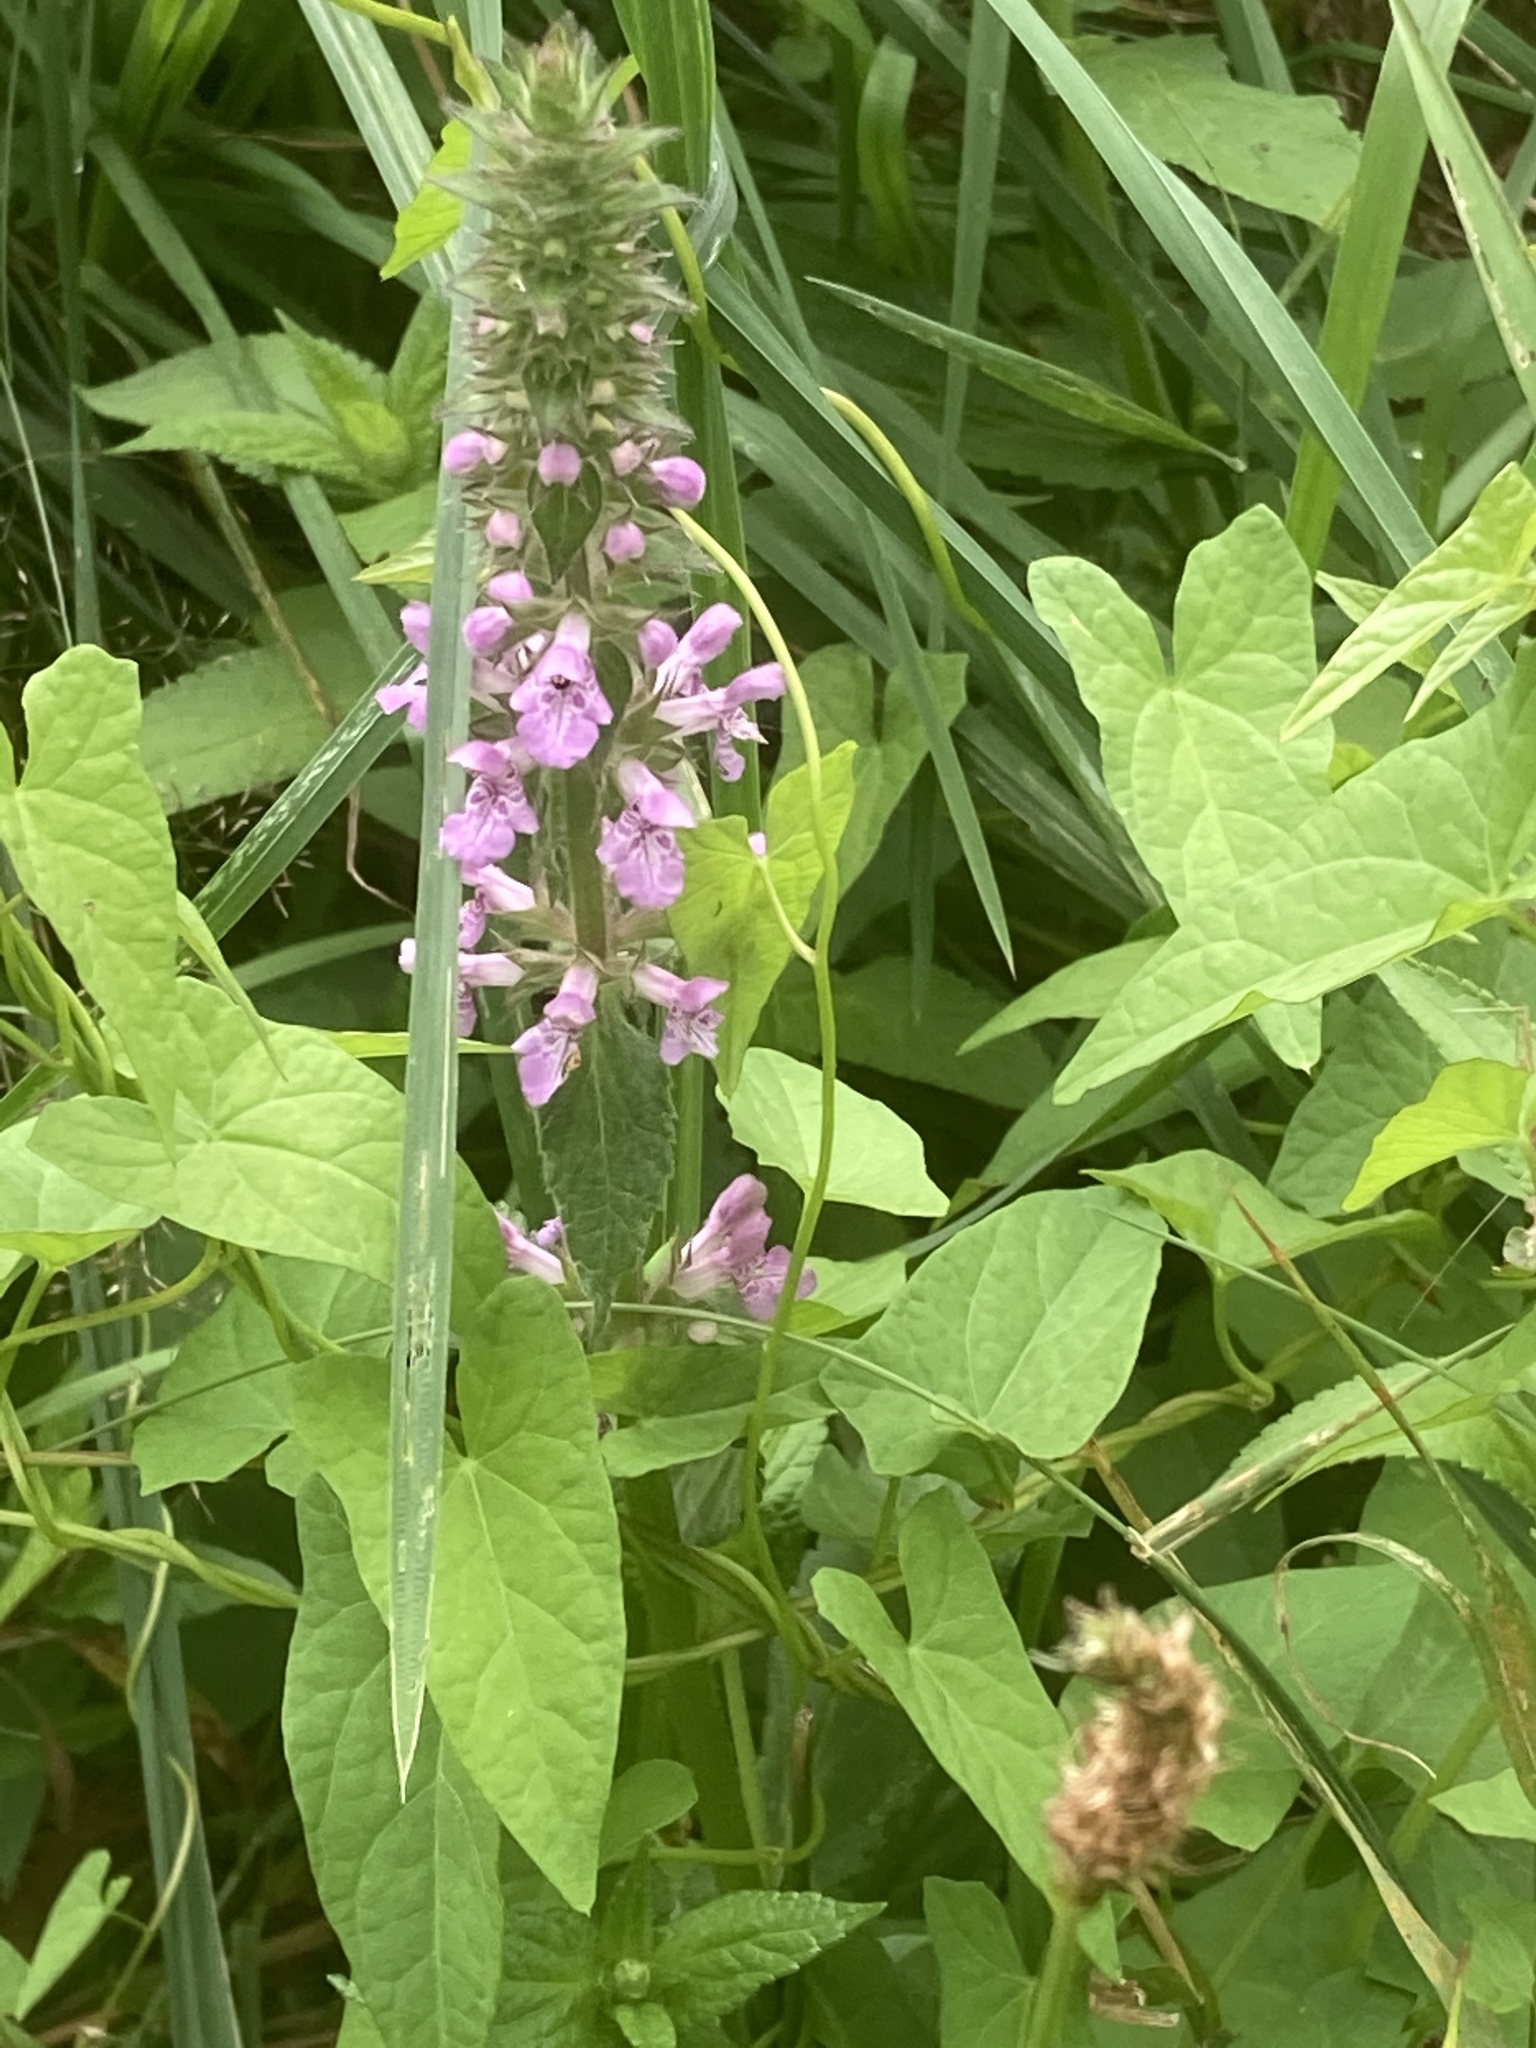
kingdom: Plantae
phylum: Tracheophyta
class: Magnoliopsida
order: Lamiales
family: Lamiaceae
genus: Stachys
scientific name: Stachys palustris
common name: Marsh woundwort
